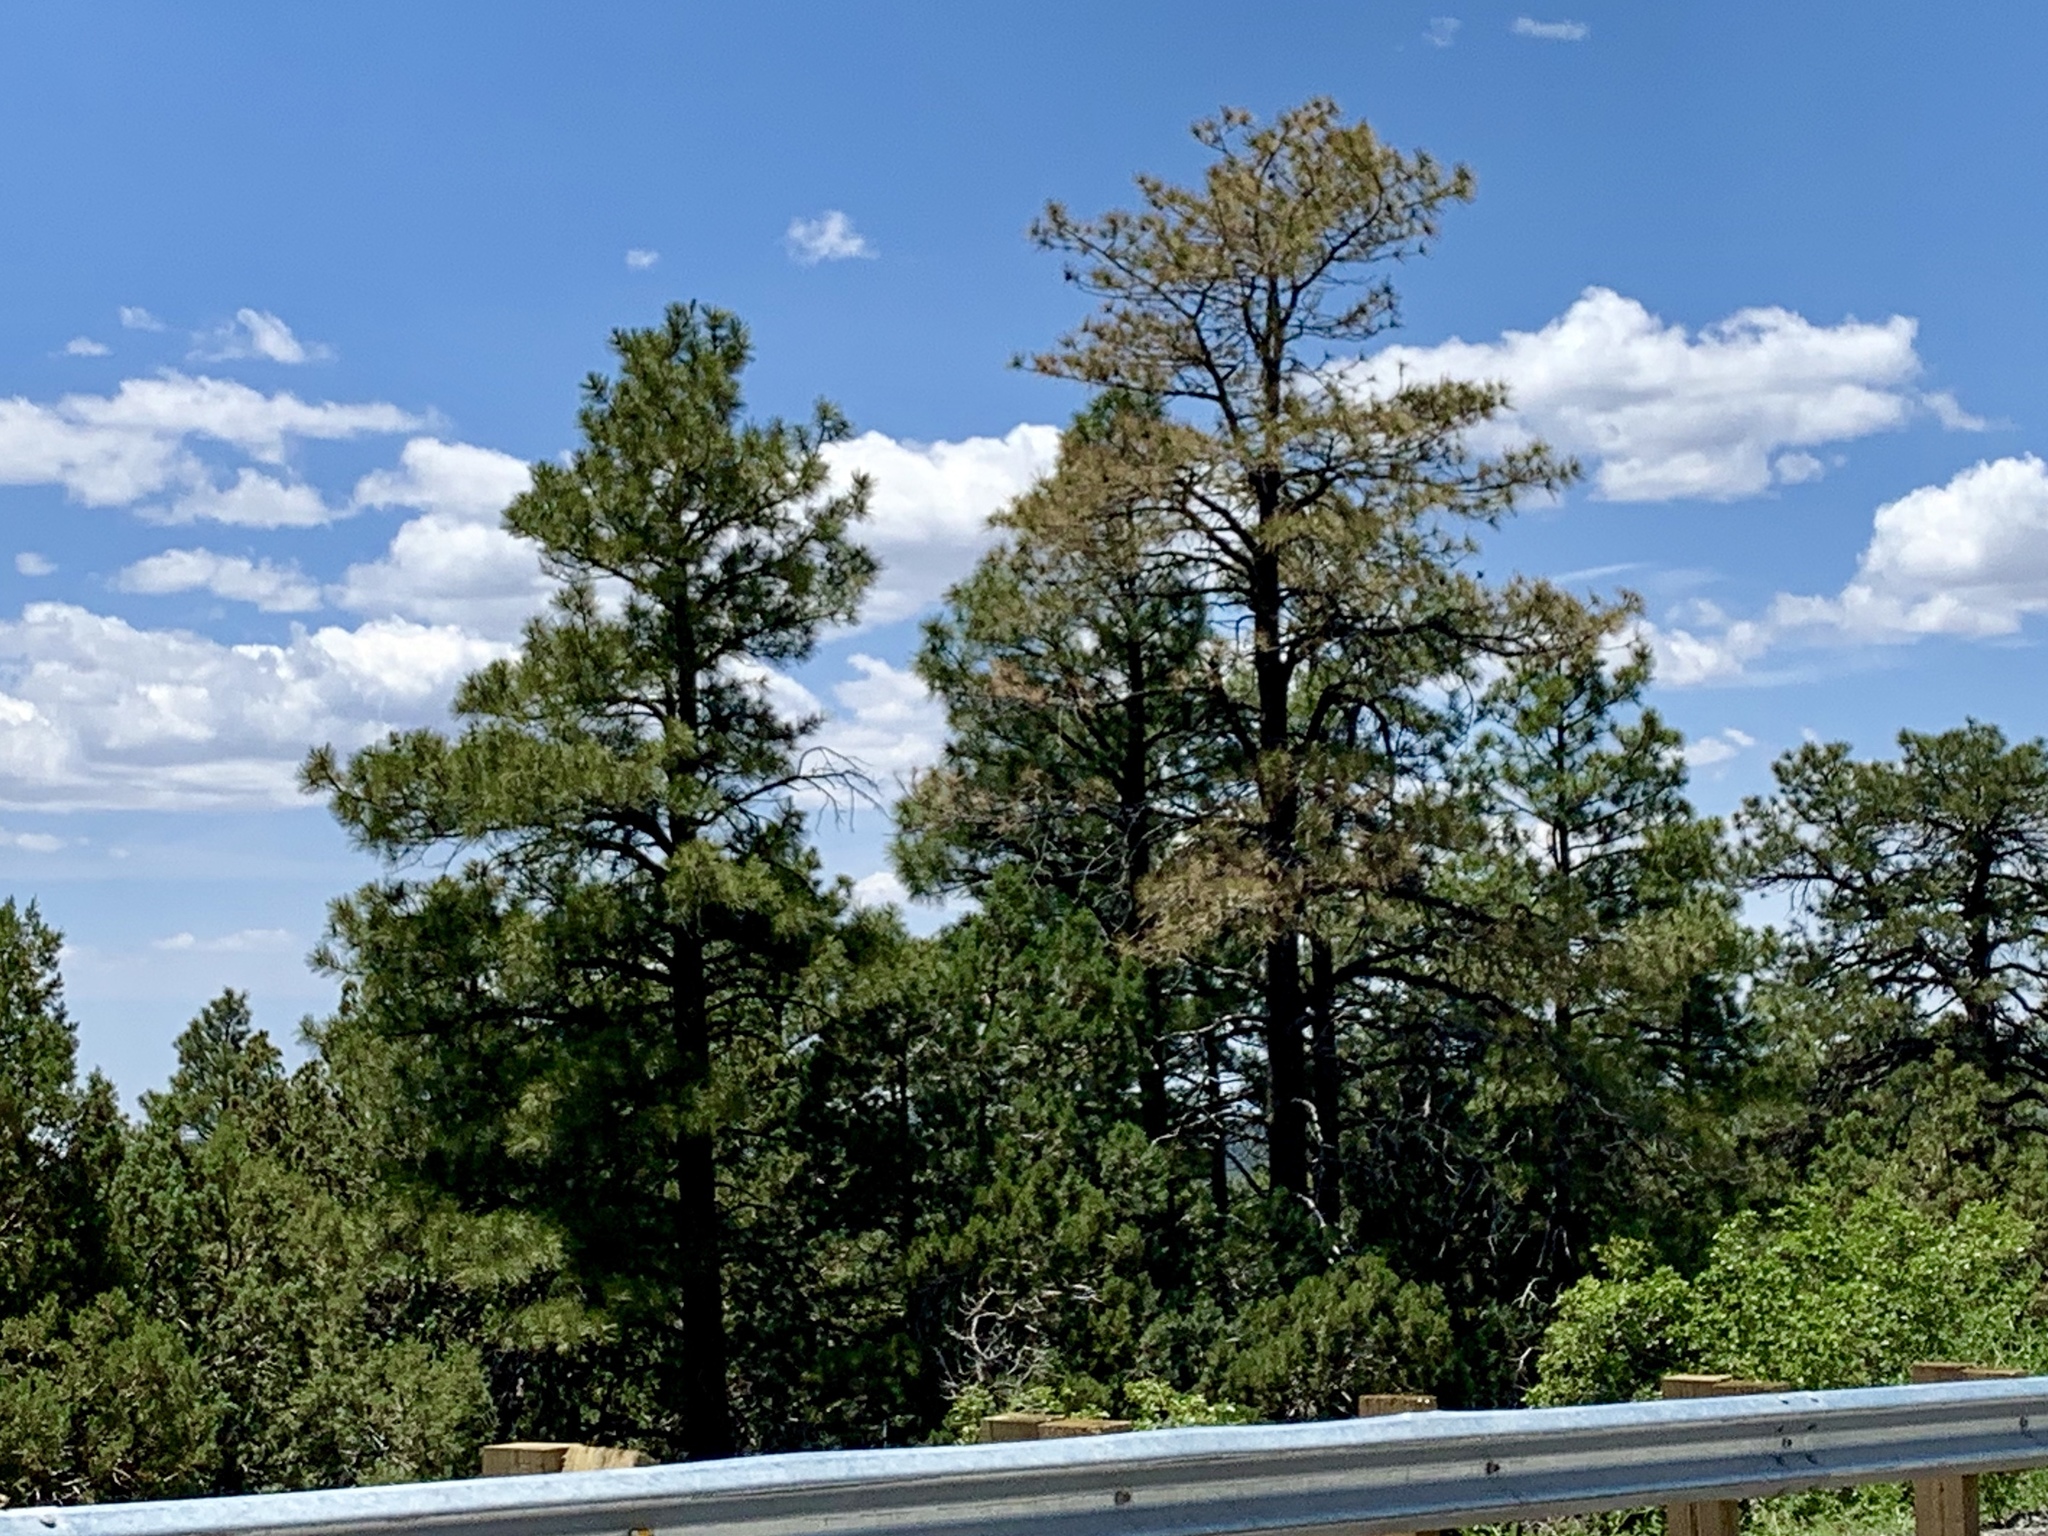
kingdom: Plantae
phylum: Tracheophyta
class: Pinopsida
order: Pinales
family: Pinaceae
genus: Pinus
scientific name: Pinus ponderosa
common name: Western yellow-pine
